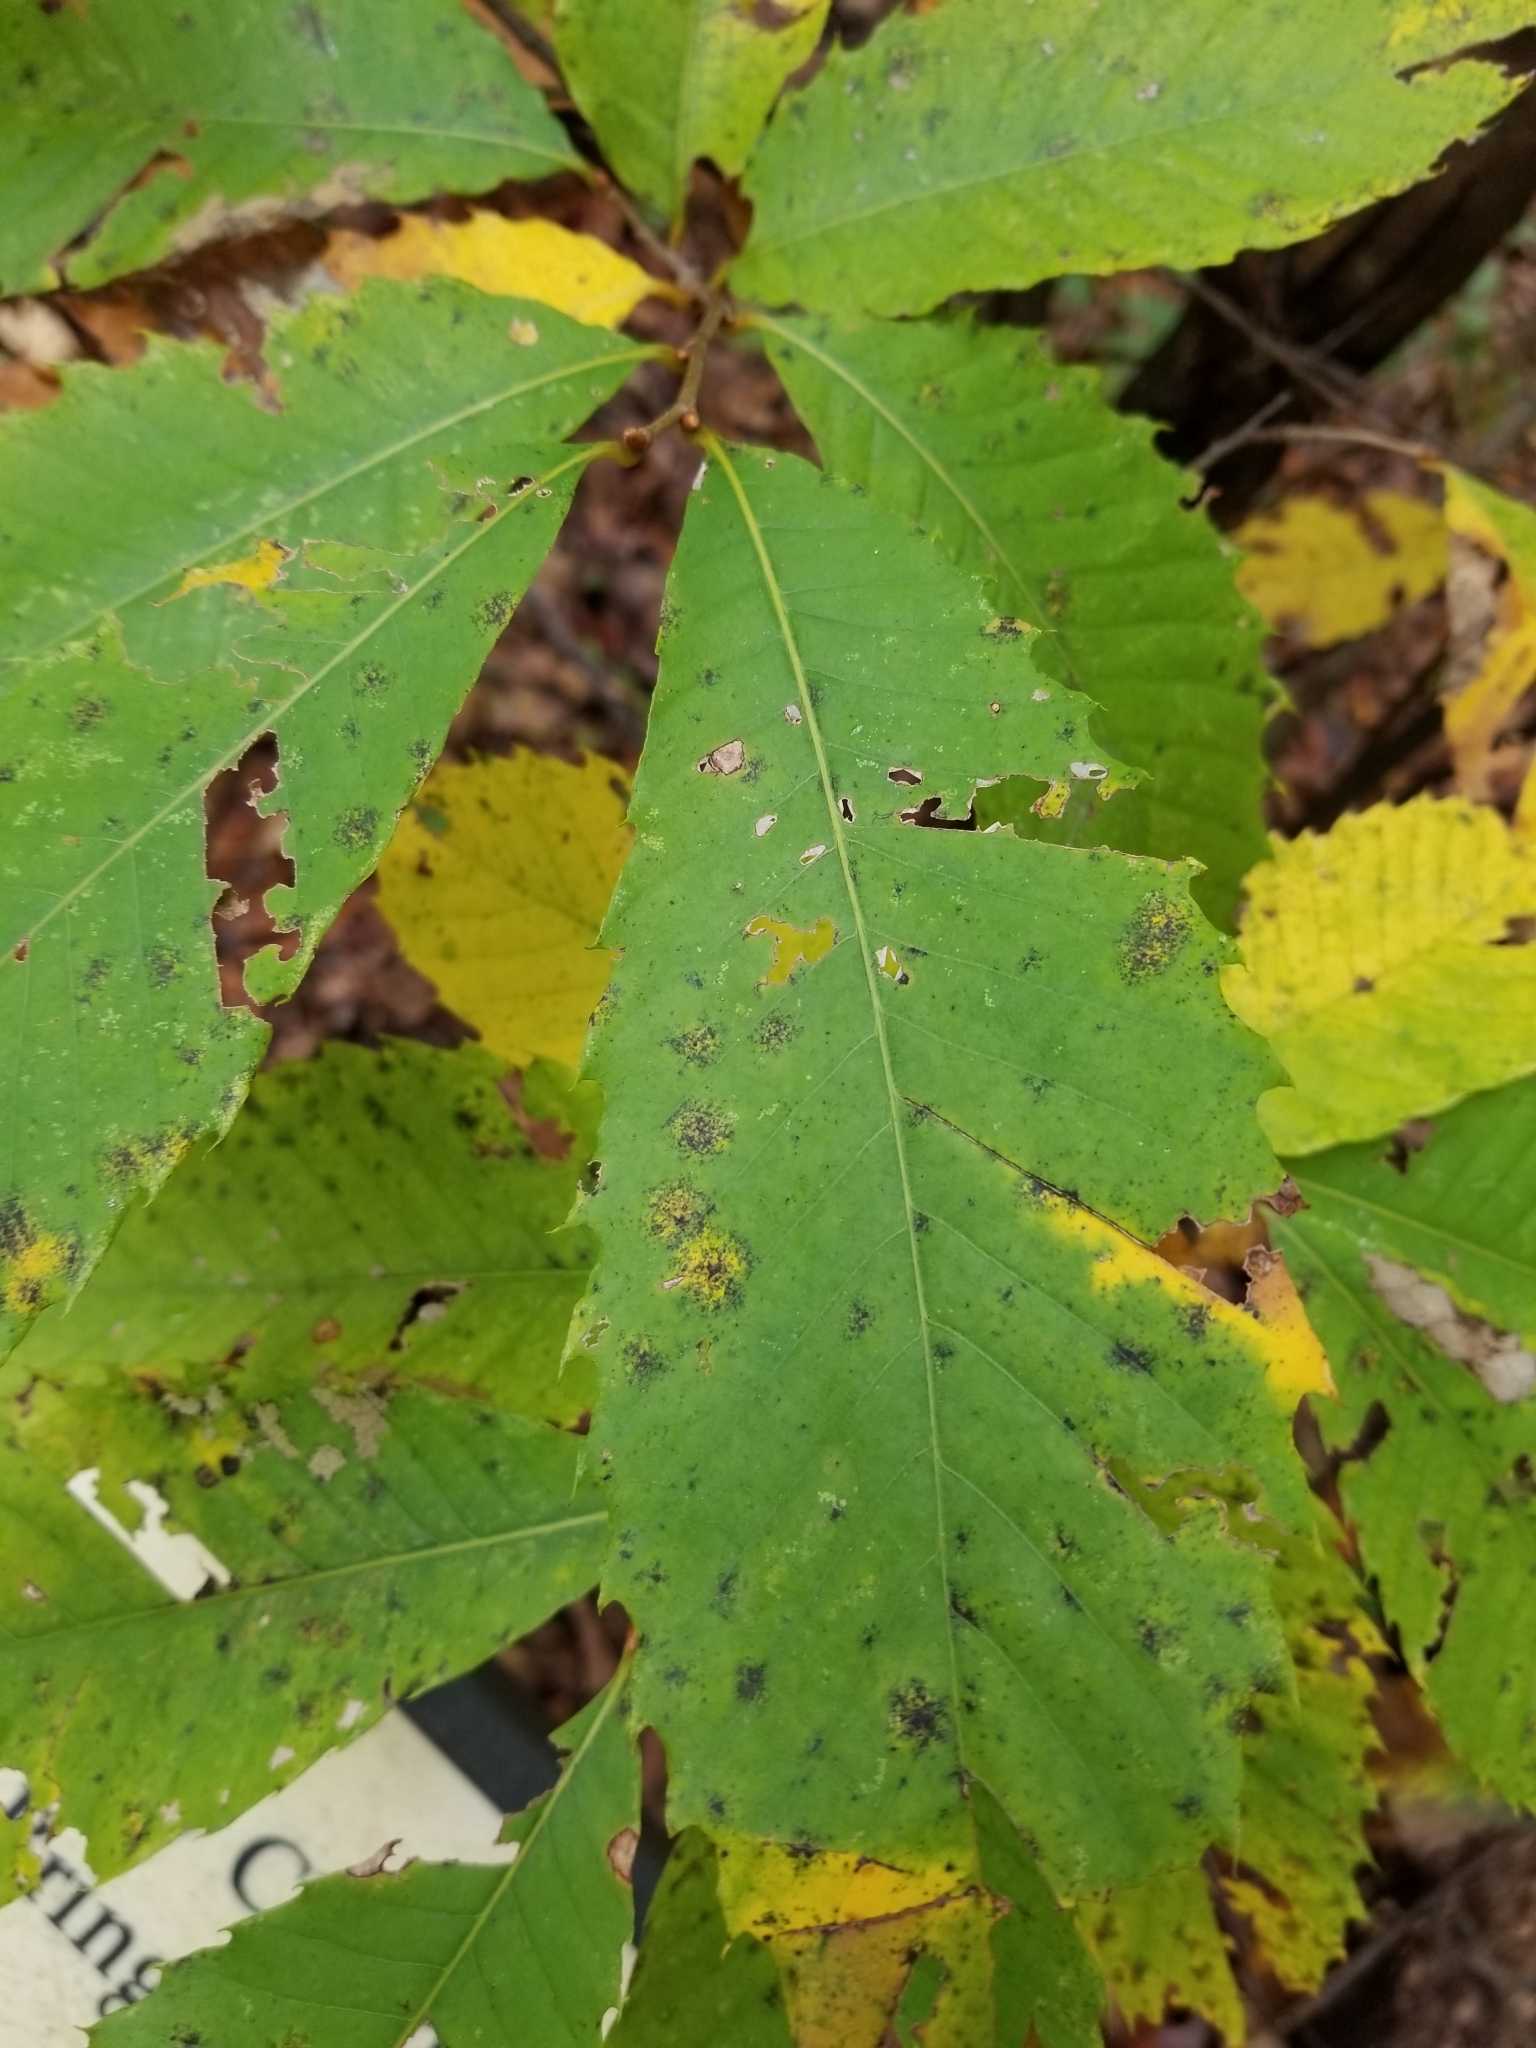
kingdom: Plantae
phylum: Tracheophyta
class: Magnoliopsida
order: Fagales
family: Fagaceae
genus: Castanea
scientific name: Castanea dentata
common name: American chestnut
